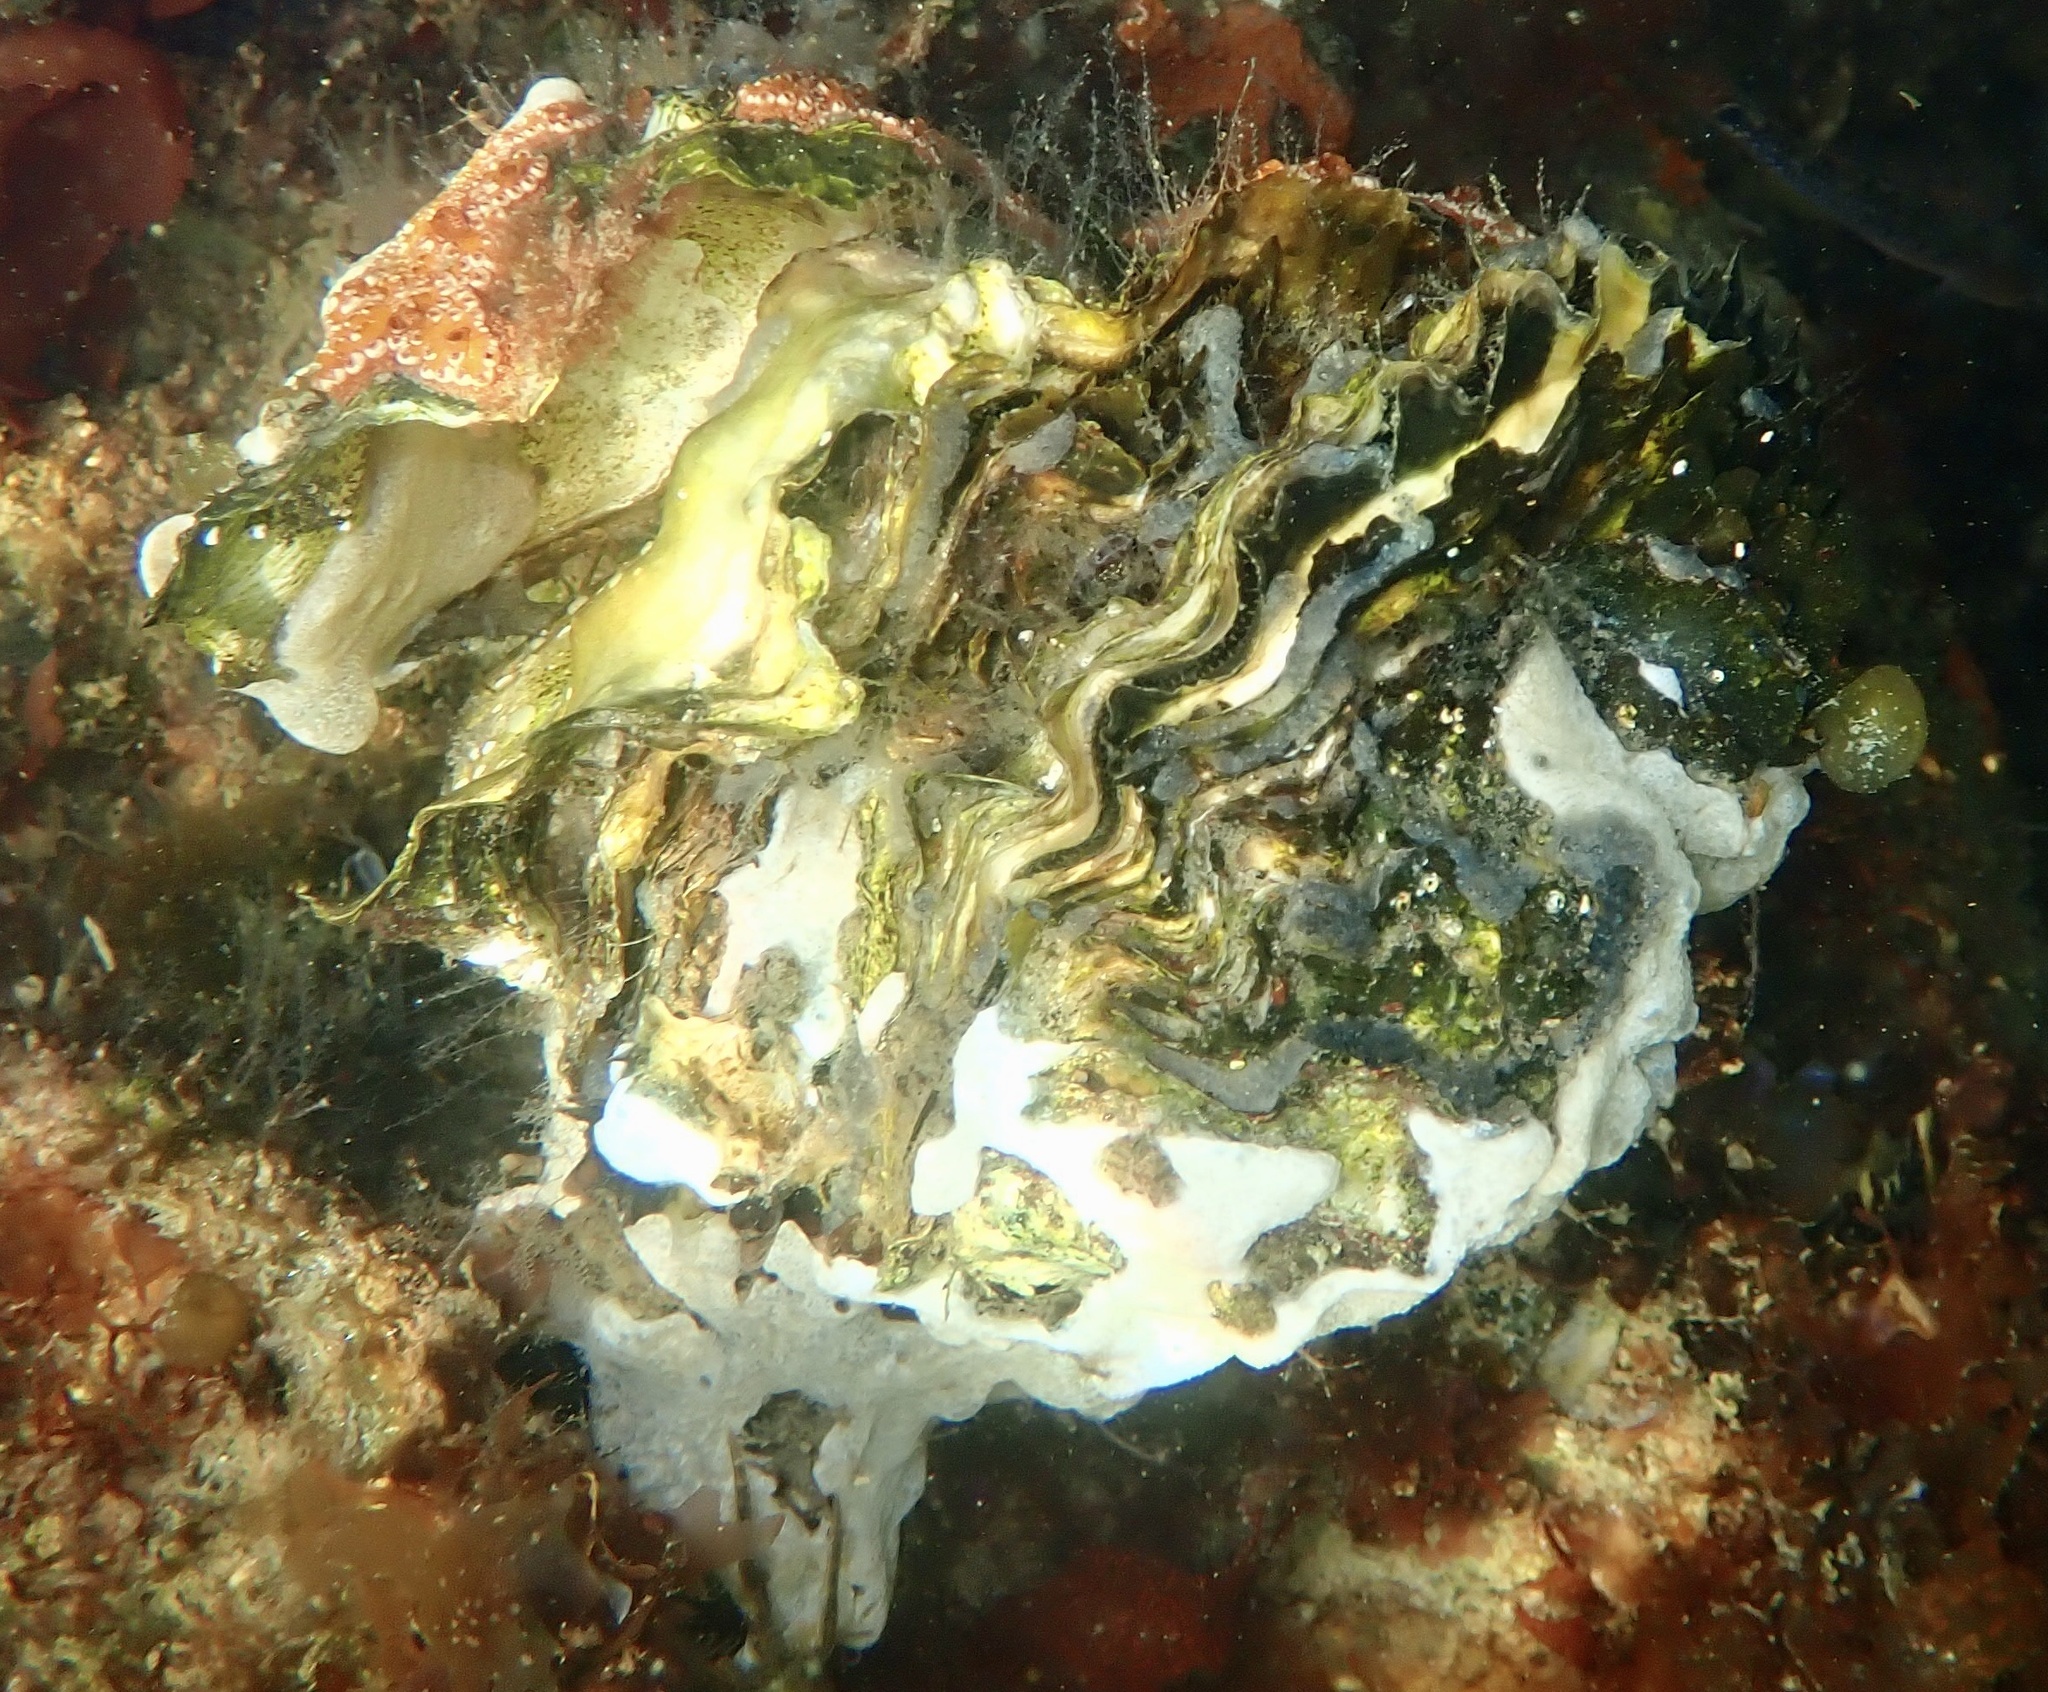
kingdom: Animalia
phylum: Mollusca
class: Bivalvia
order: Ostreida
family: Ostreidae
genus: Magallana
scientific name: Magallana gigas
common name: Pacific oyster
